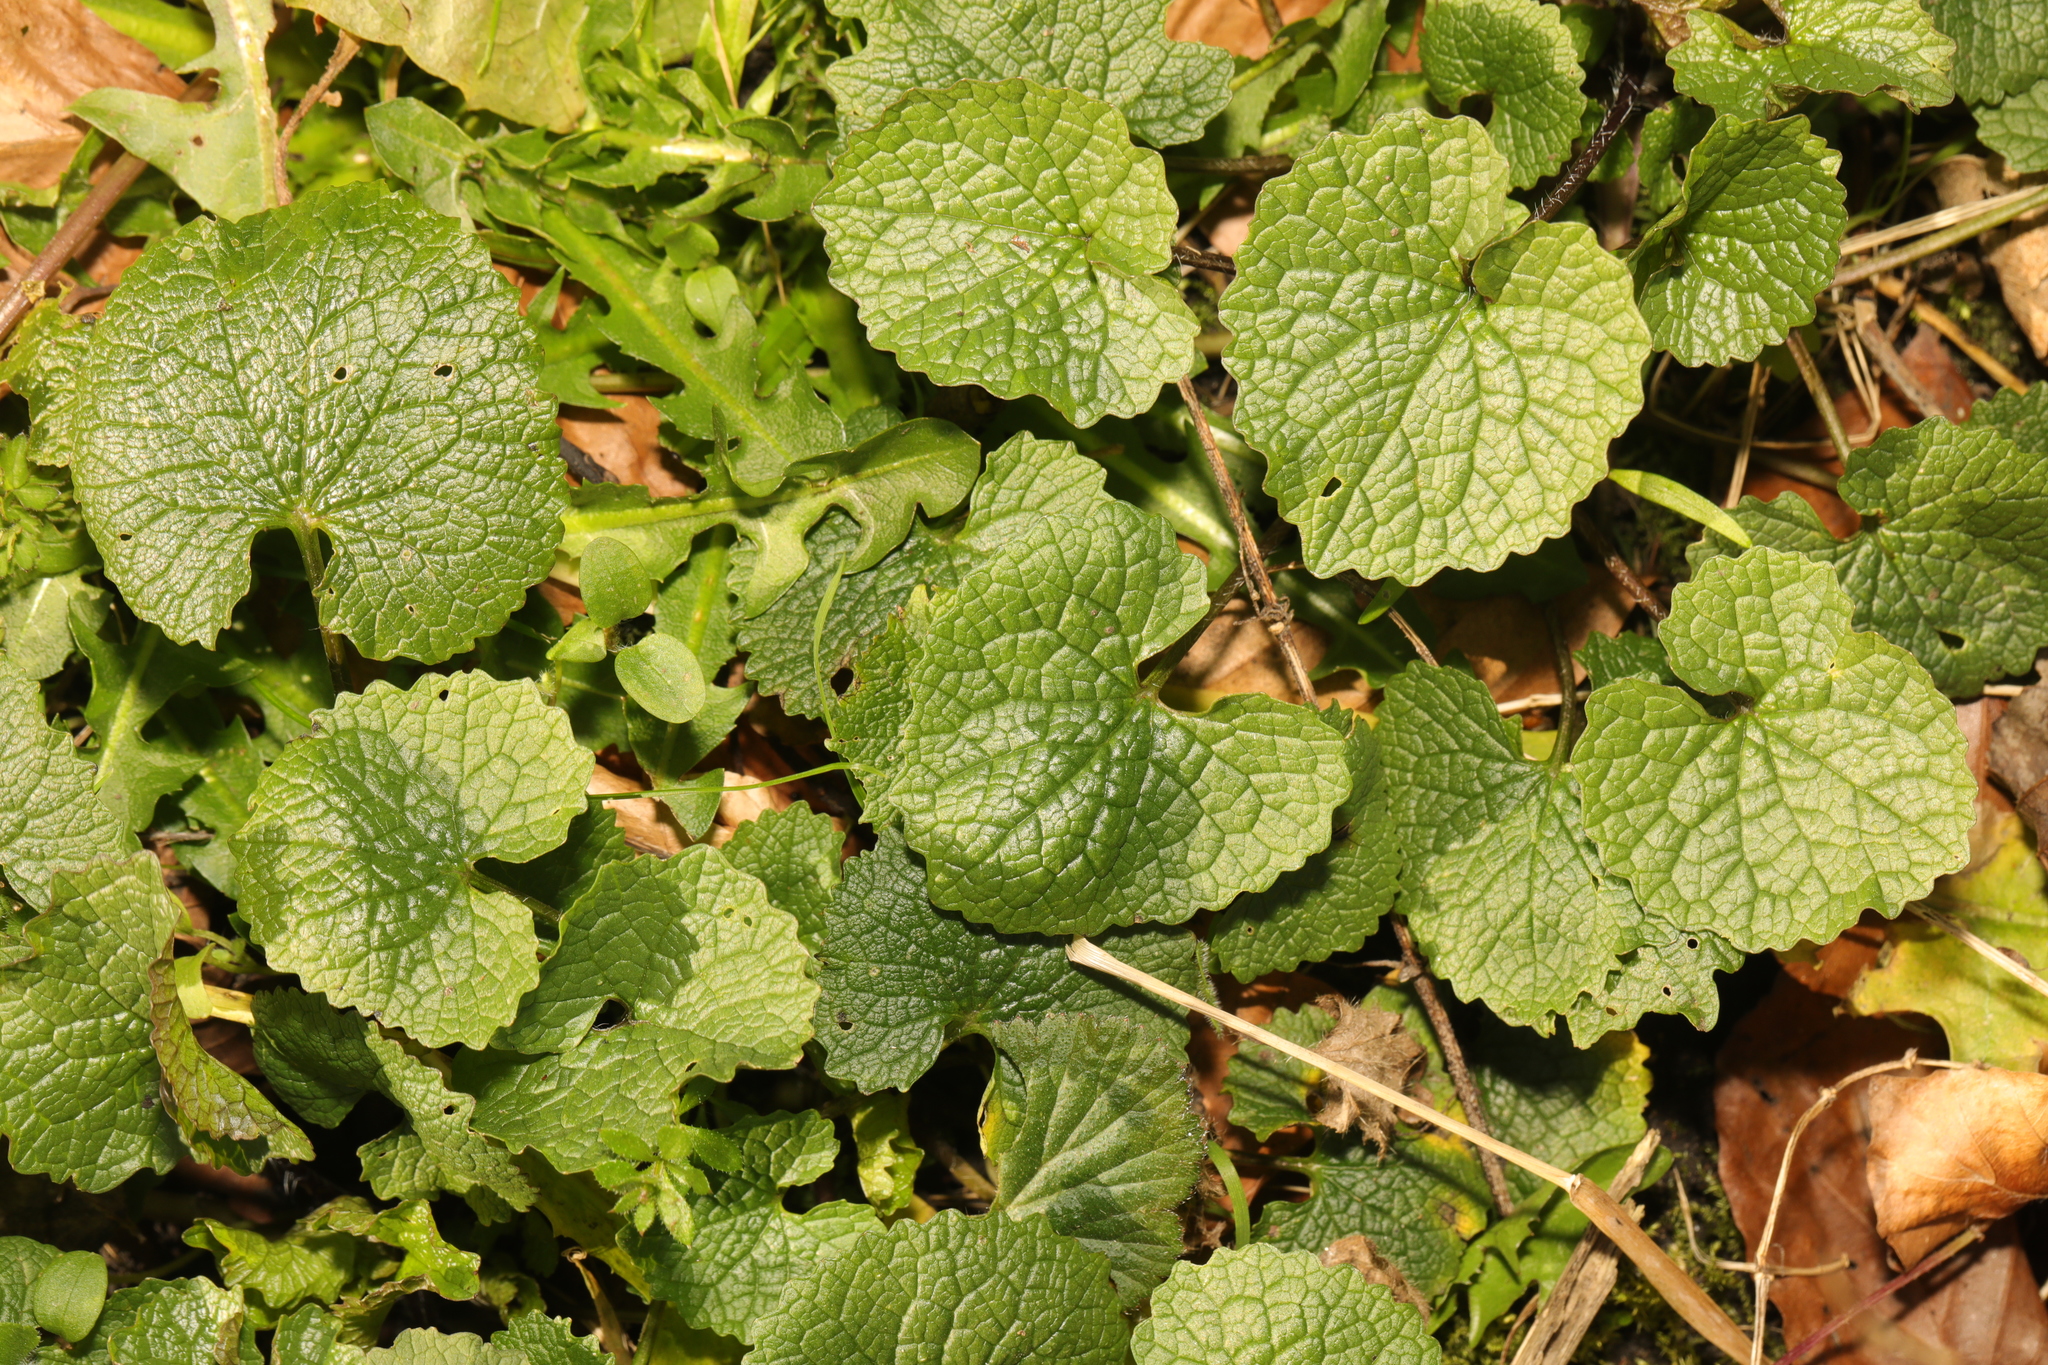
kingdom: Plantae
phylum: Tracheophyta
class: Magnoliopsida
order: Brassicales
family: Brassicaceae
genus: Alliaria
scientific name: Alliaria petiolata
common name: Garlic mustard
